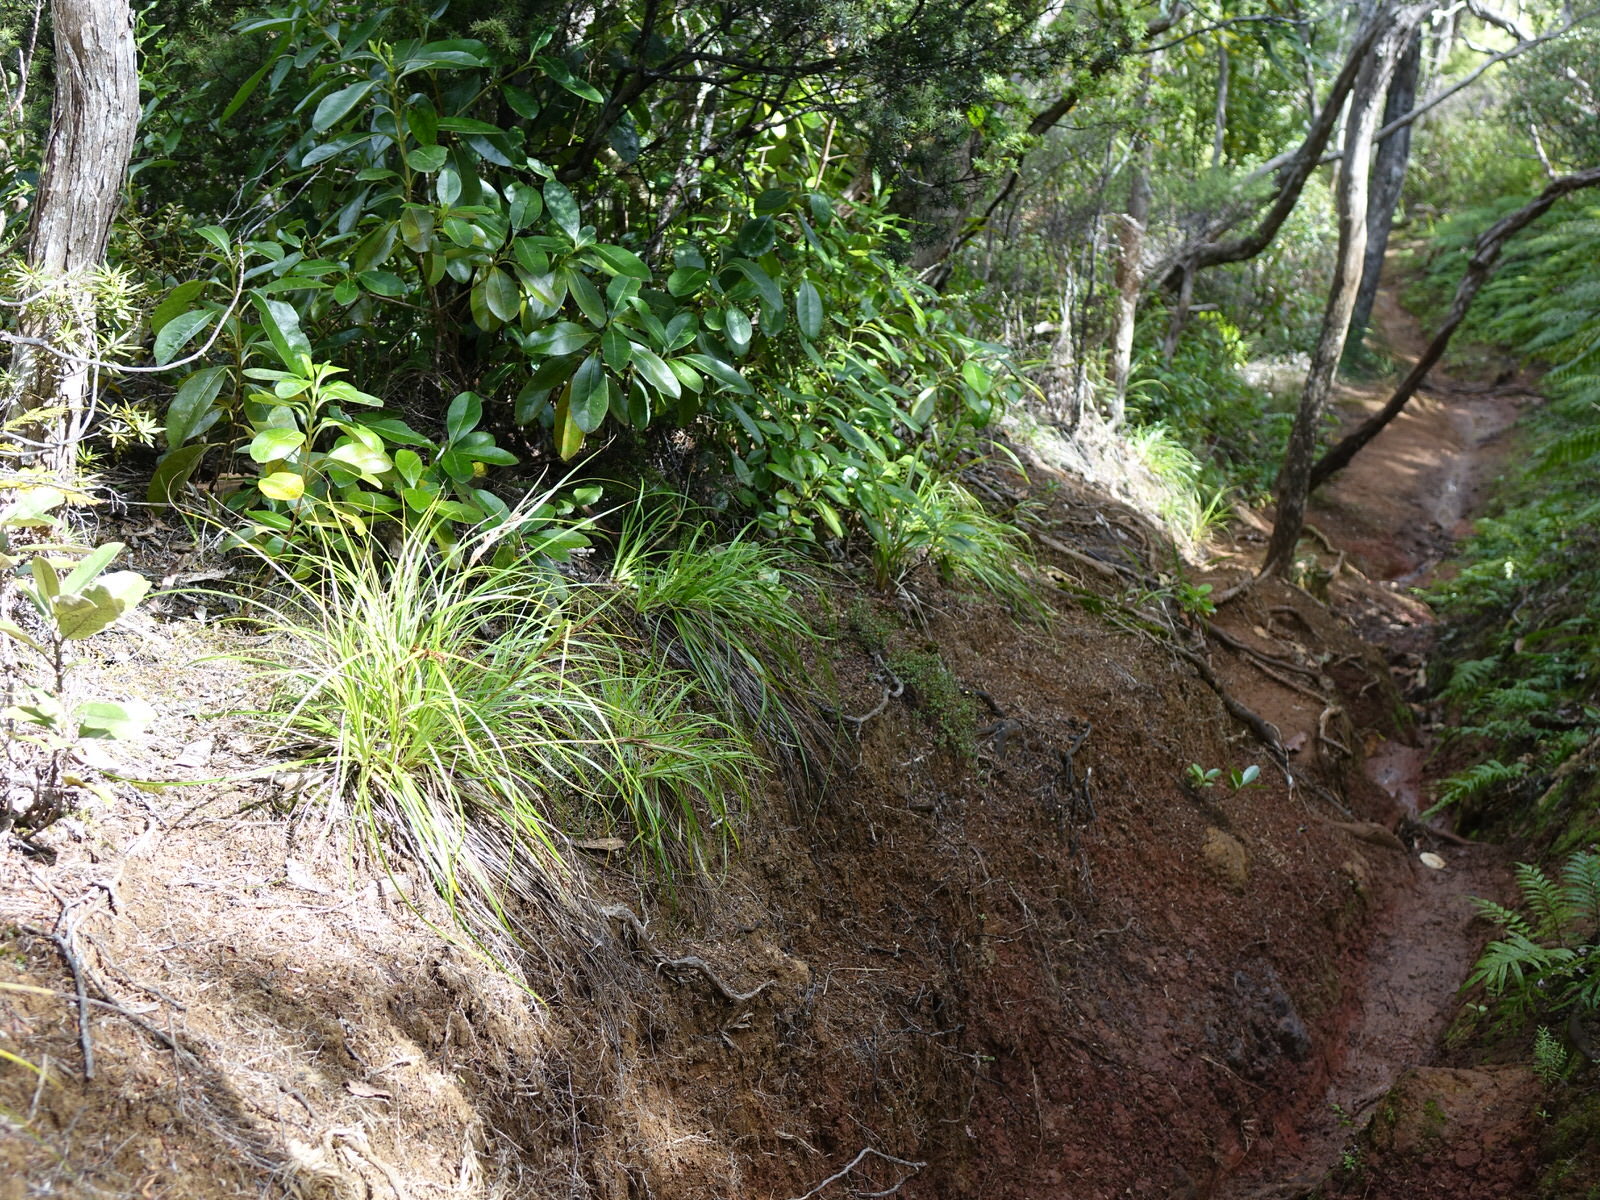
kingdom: Plantae
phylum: Tracheophyta
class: Liliopsida
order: Poales
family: Cyperaceae
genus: Morelotia
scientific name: Morelotia affinis
